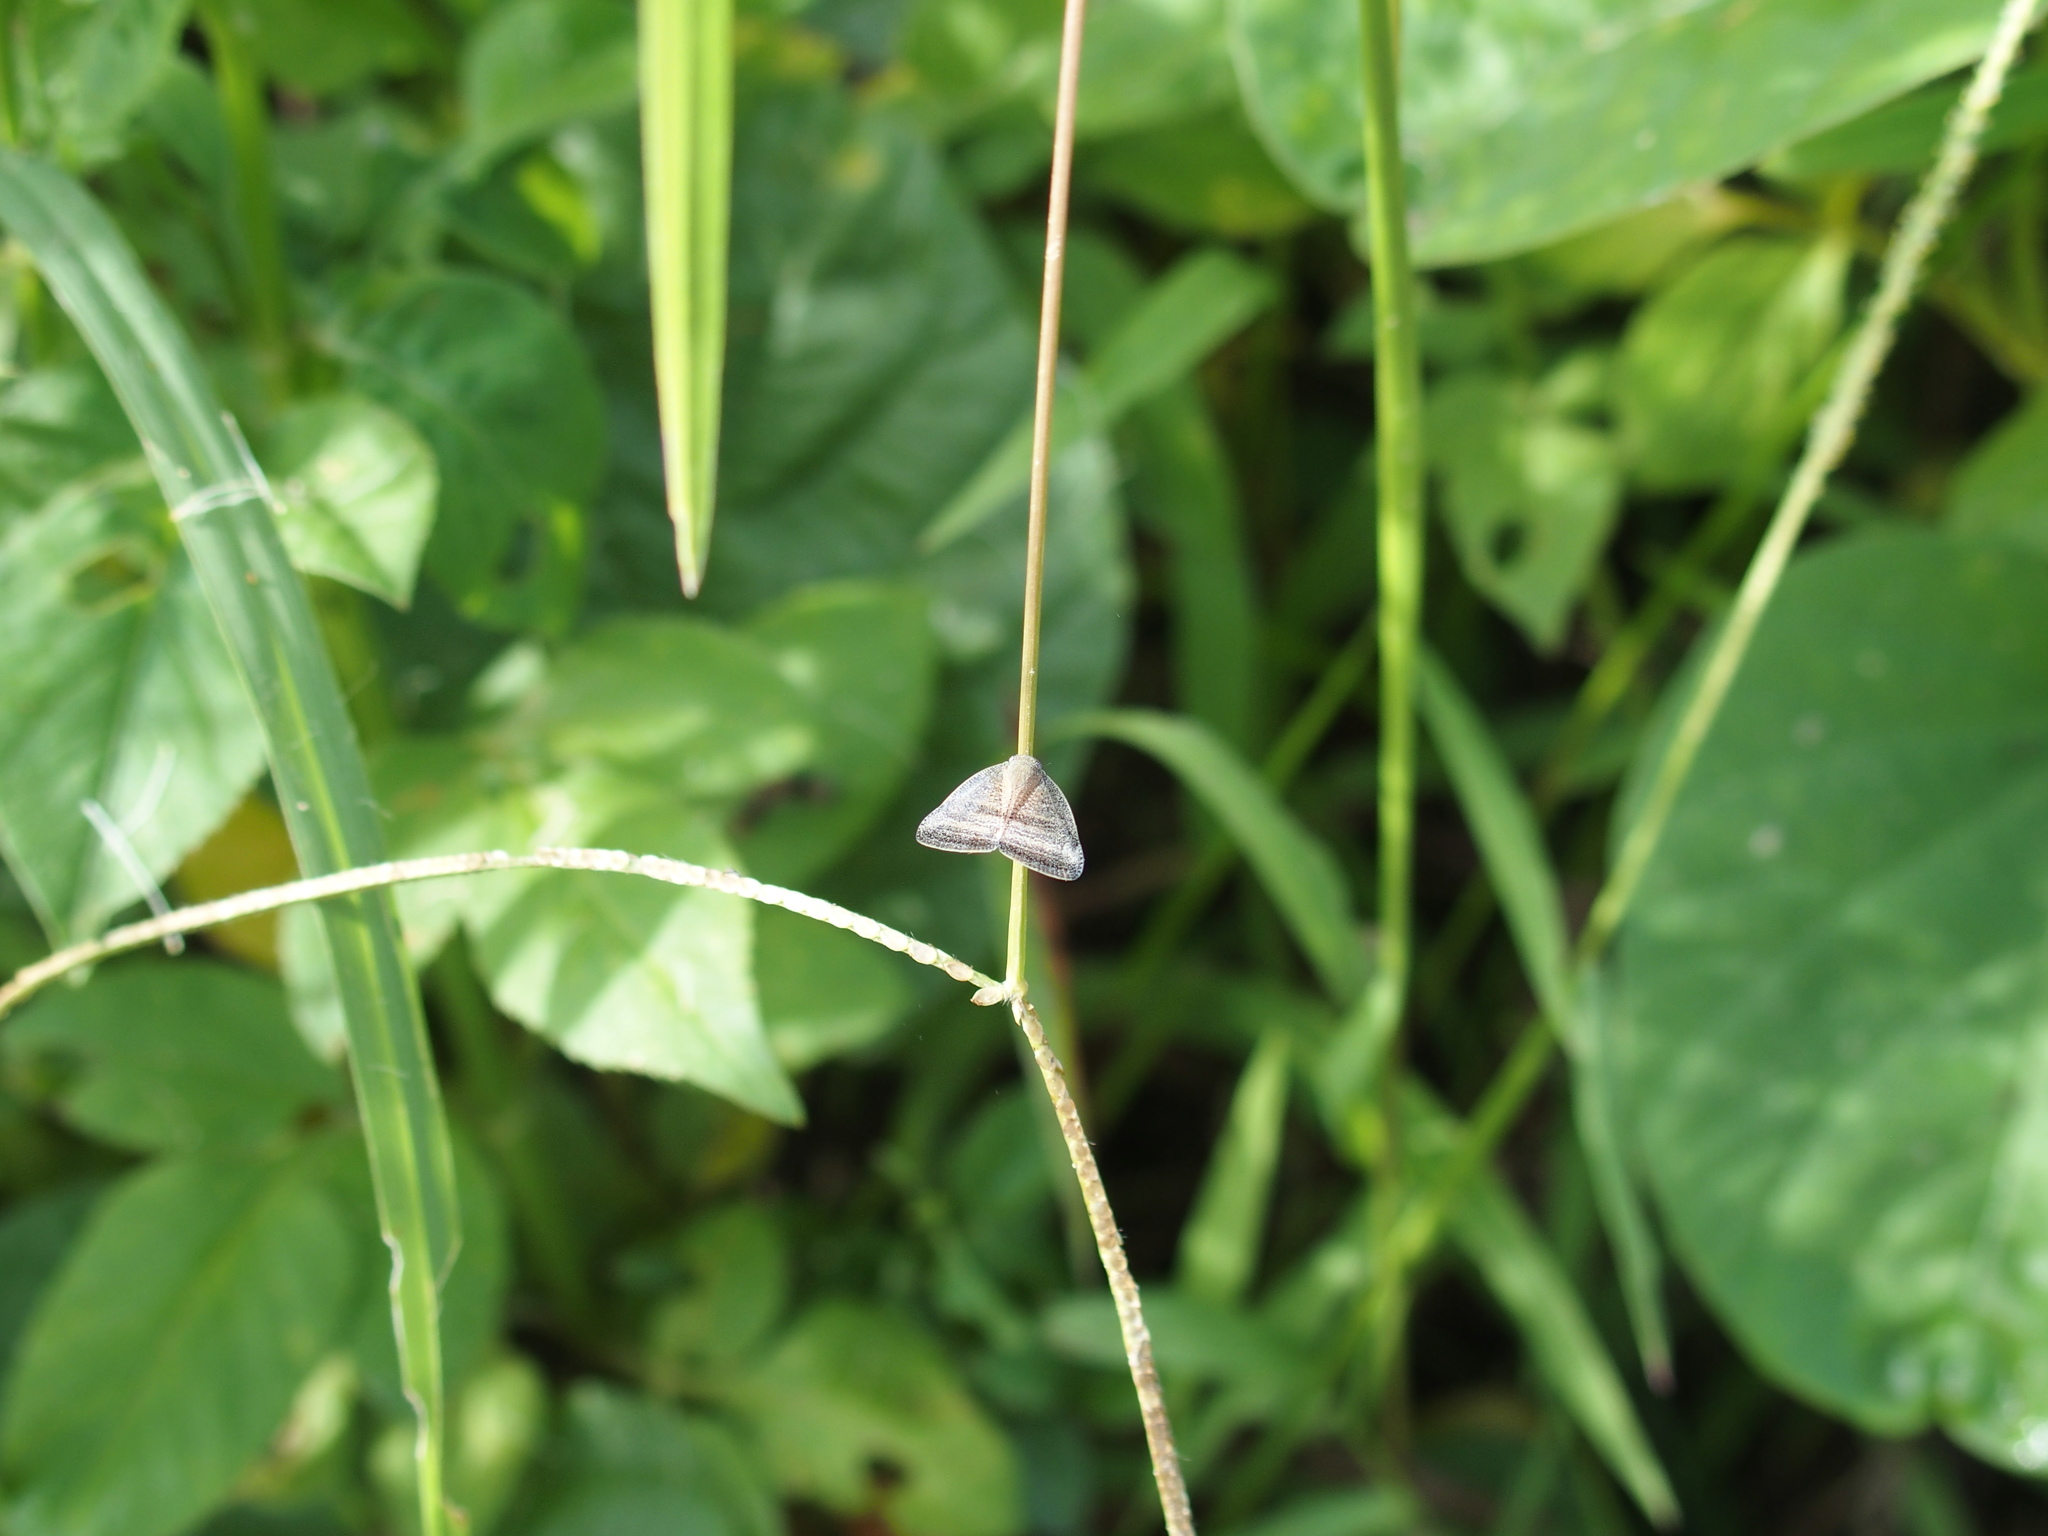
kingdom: Animalia
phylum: Arthropoda
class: Insecta
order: Hemiptera
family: Ricaniidae
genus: Ricania
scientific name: Ricania taeniata
